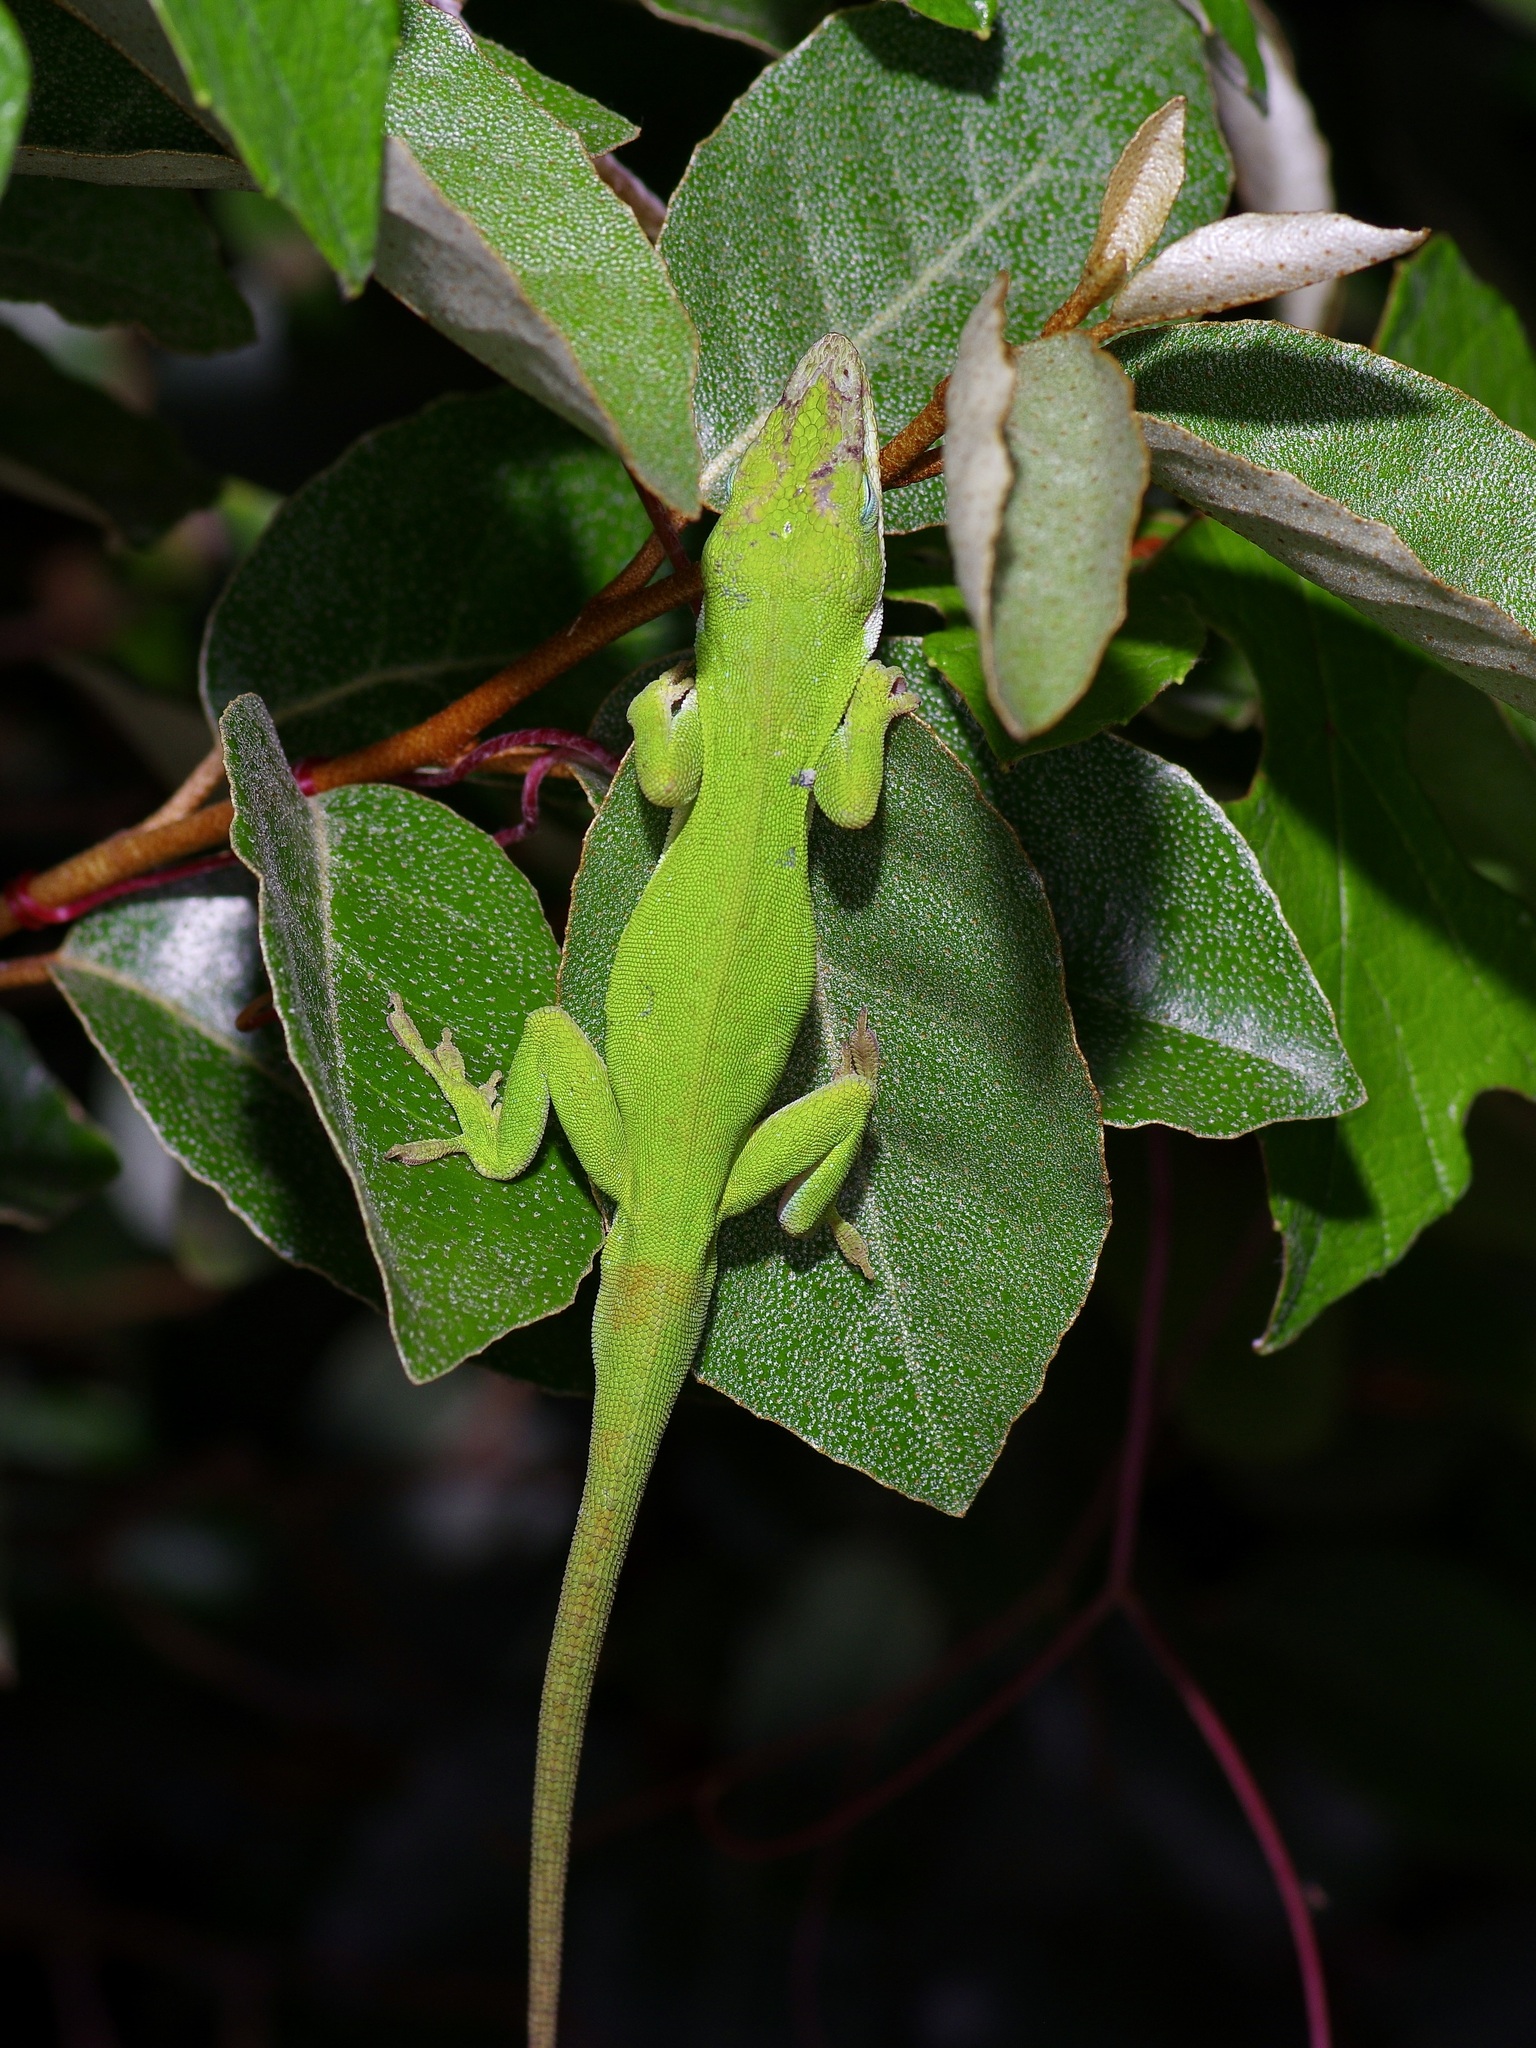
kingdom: Animalia
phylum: Chordata
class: Squamata
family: Dactyloidae
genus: Anolis
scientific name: Anolis carolinensis
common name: Green anole
